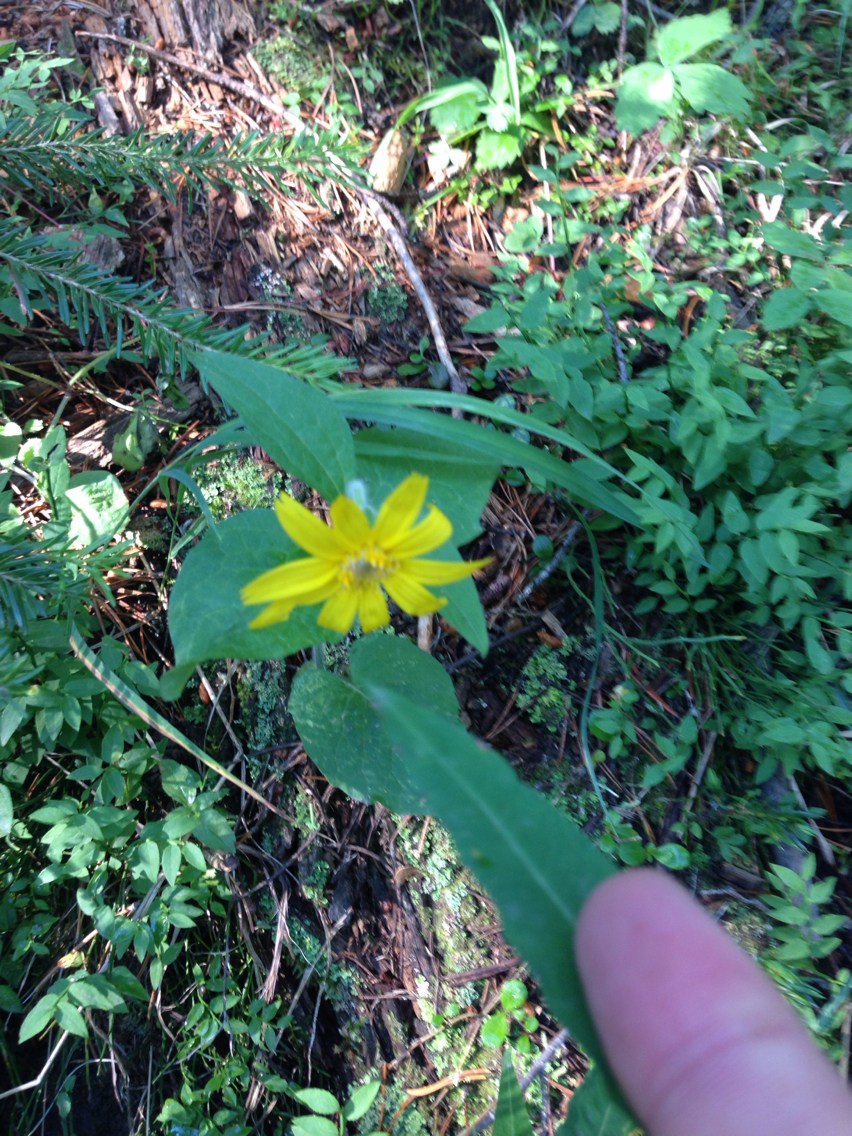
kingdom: Plantae
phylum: Tracheophyta
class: Magnoliopsida
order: Asterales
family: Asteraceae
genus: Arnica
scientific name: Arnica cordifolia
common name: Heart-leaf arnica
